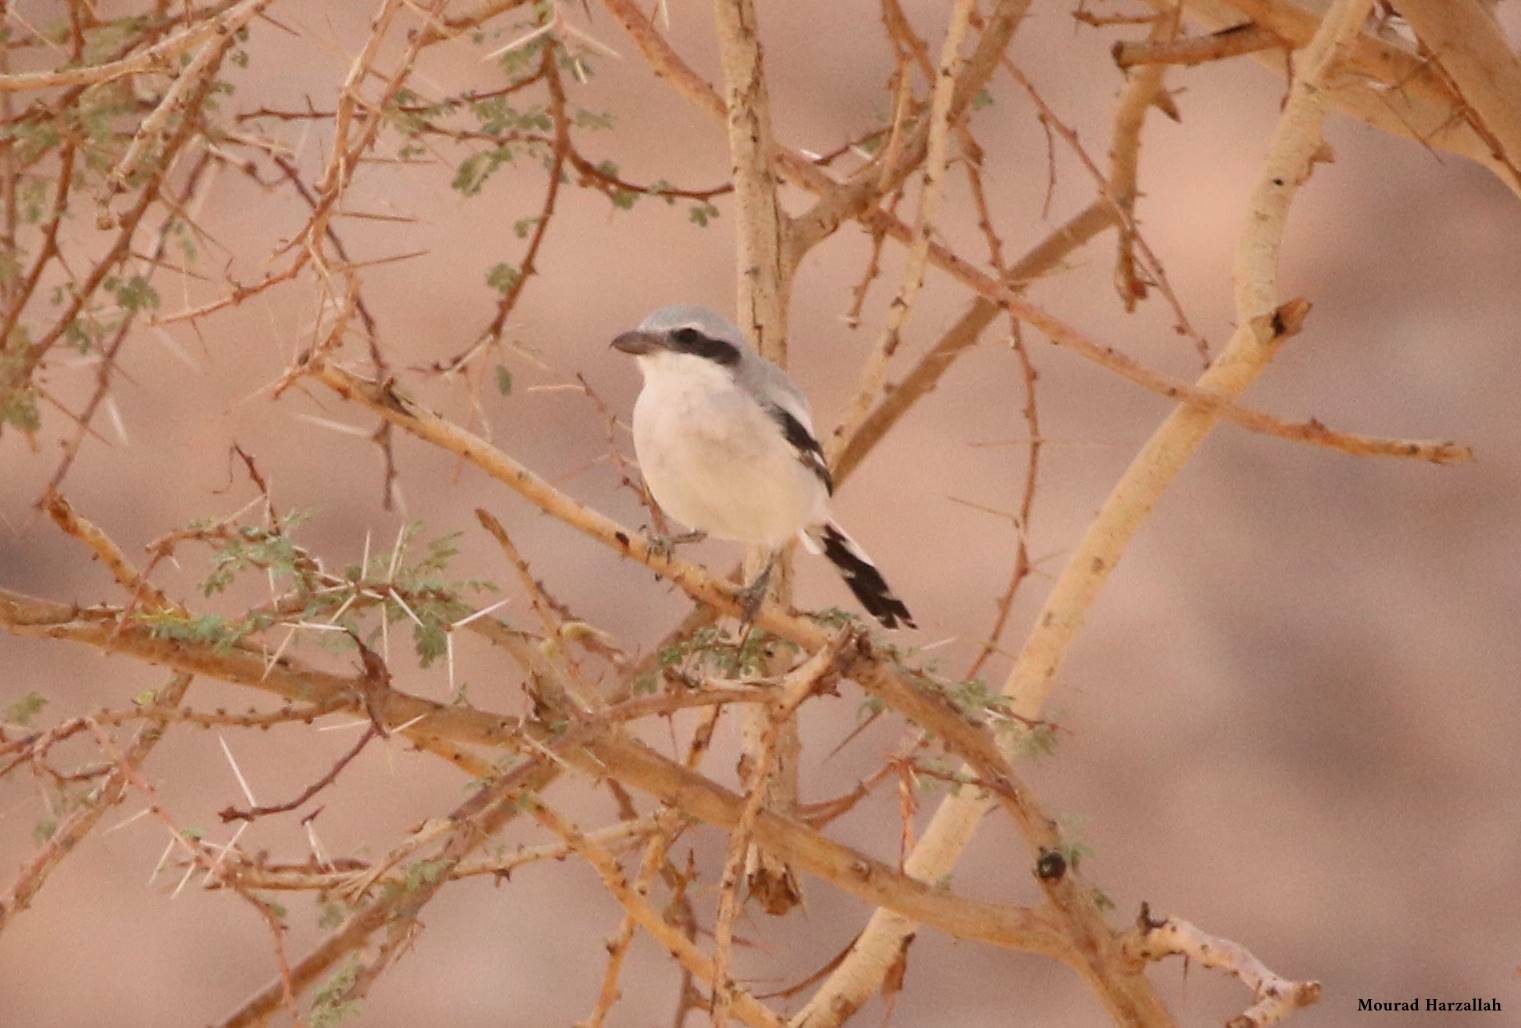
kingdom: Animalia
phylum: Chordata
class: Aves
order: Passeriformes
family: Laniidae
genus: Lanius
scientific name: Lanius excubitor
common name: Great grey shrike
